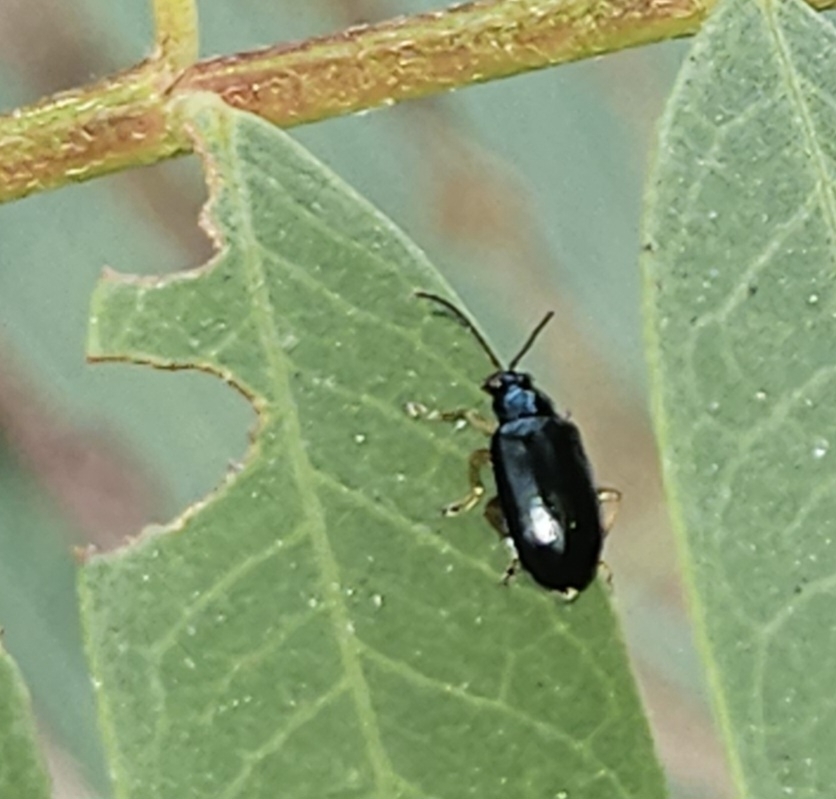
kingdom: Animalia
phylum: Arthropoda
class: Insecta
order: Coleoptera
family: Chrysomelidae
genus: Lysathia
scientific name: Lysathia ludoviciana
